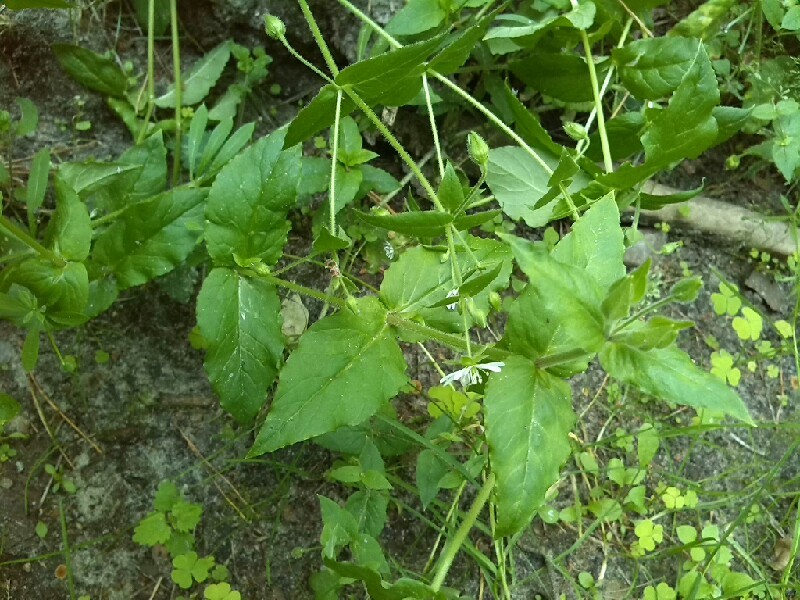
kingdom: Plantae
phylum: Tracheophyta
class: Magnoliopsida
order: Caryophyllales
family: Caryophyllaceae
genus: Stellaria
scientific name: Stellaria nemorum
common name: Wood stitchwort
